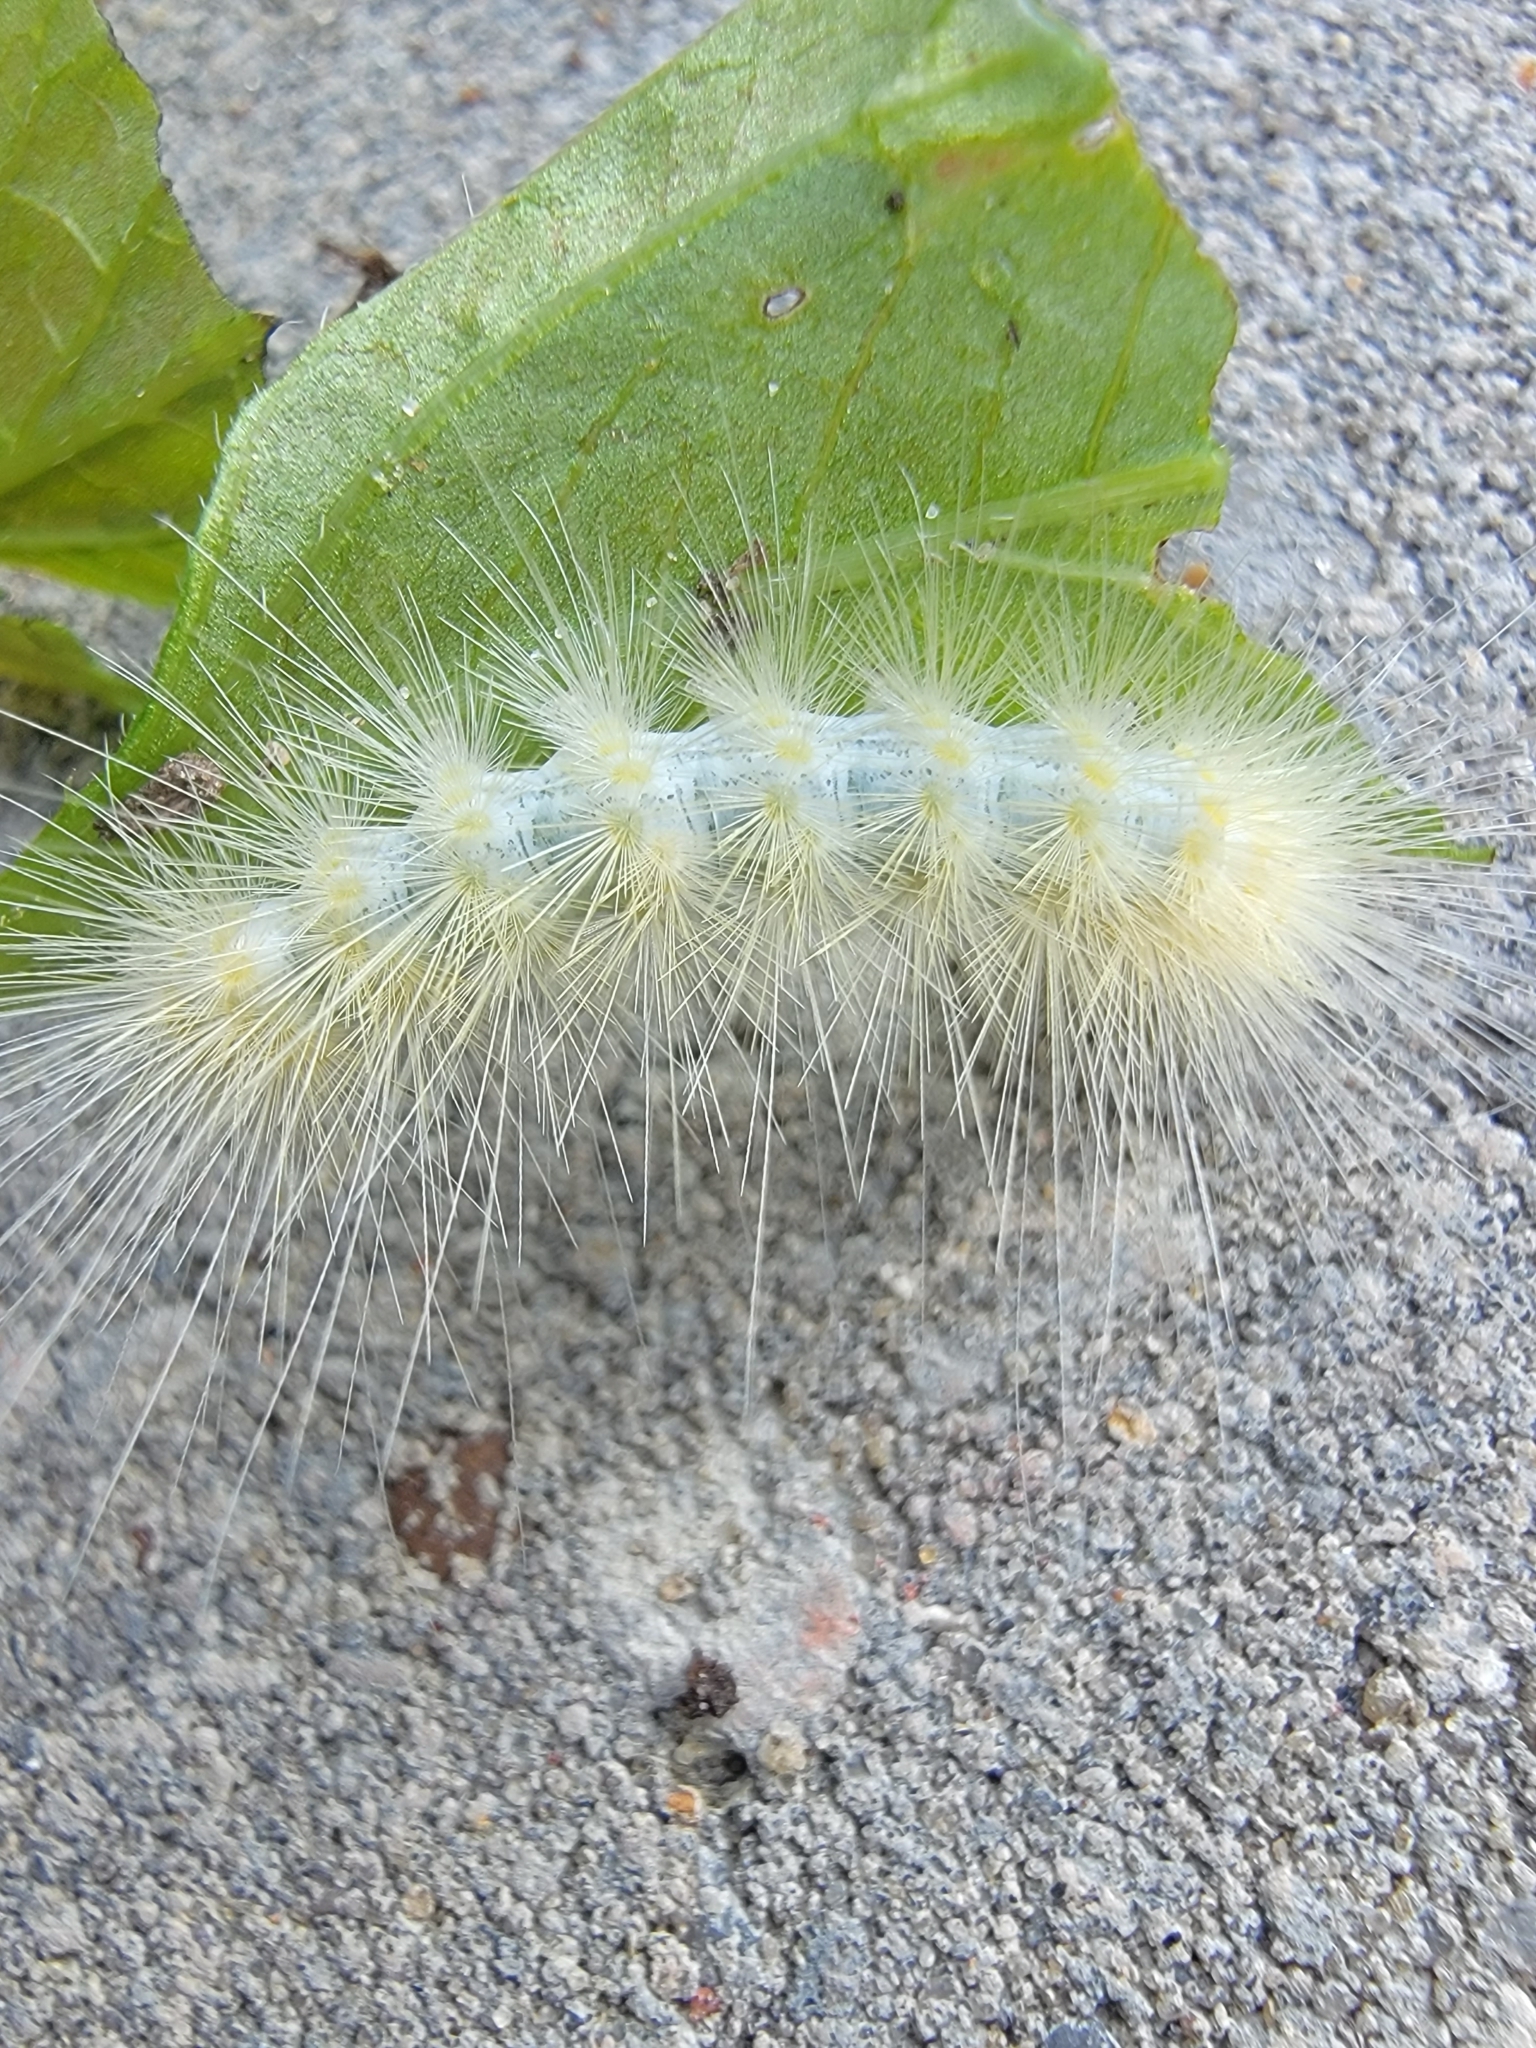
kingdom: Animalia
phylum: Arthropoda
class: Insecta
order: Lepidoptera
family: Erebidae
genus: Spilosoma
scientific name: Spilosoma virginica
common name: Virginia tiger moth
